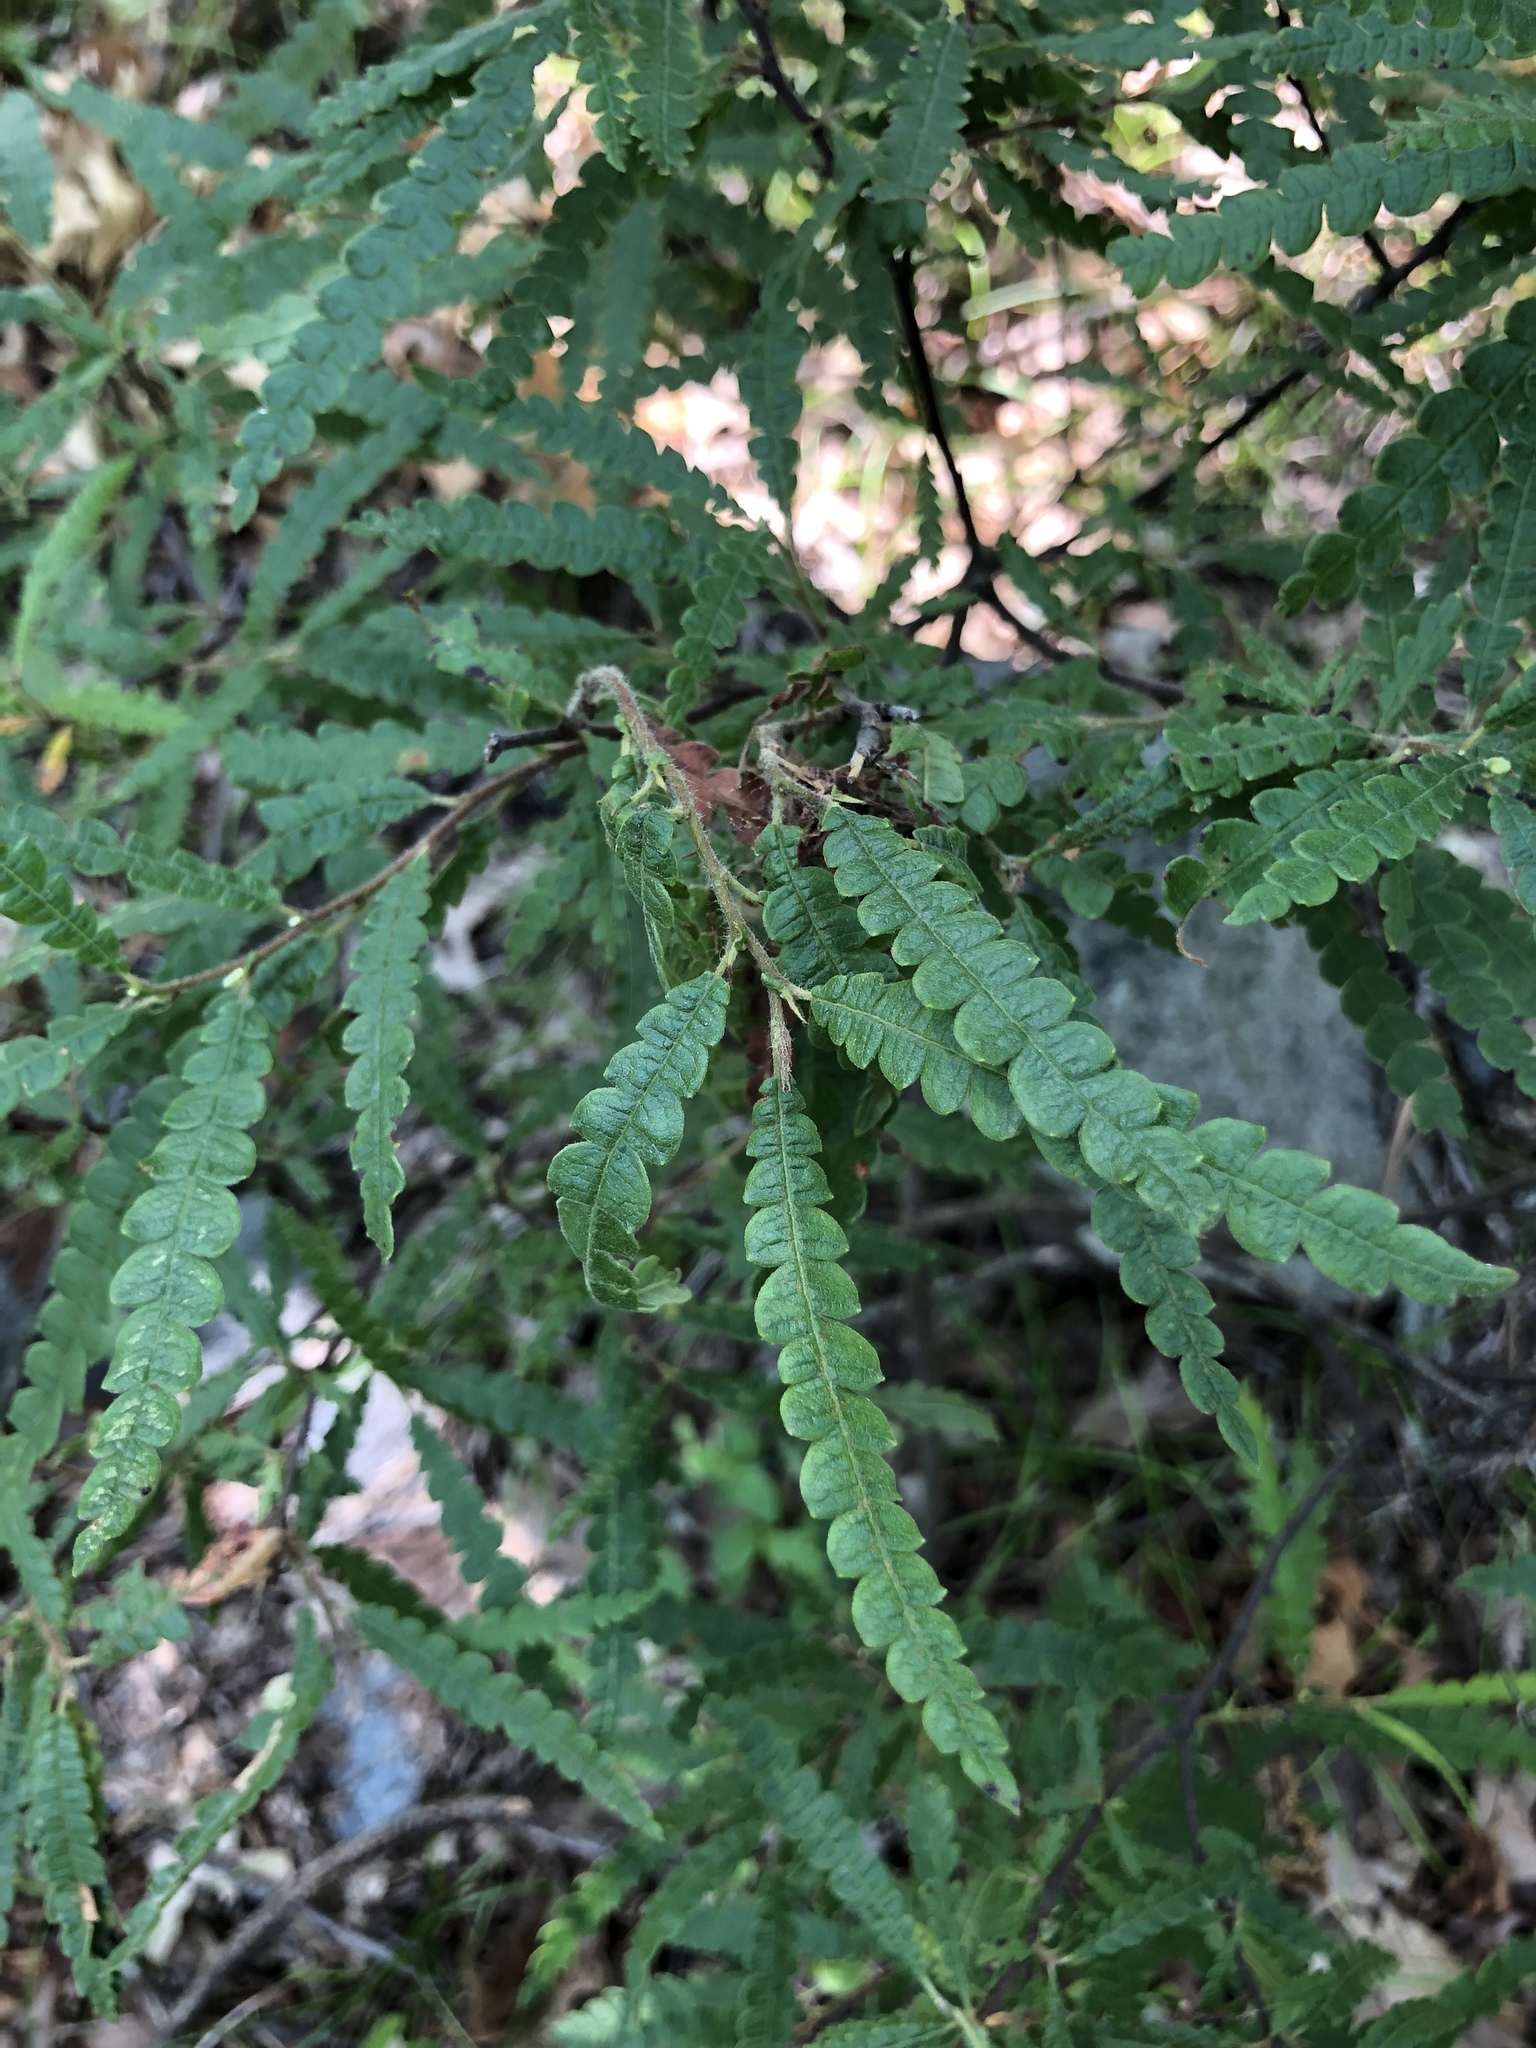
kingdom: Plantae
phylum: Tracheophyta
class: Magnoliopsida
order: Fagales
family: Myricaceae
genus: Comptonia
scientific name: Comptonia peregrina
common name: Sweet-fern
